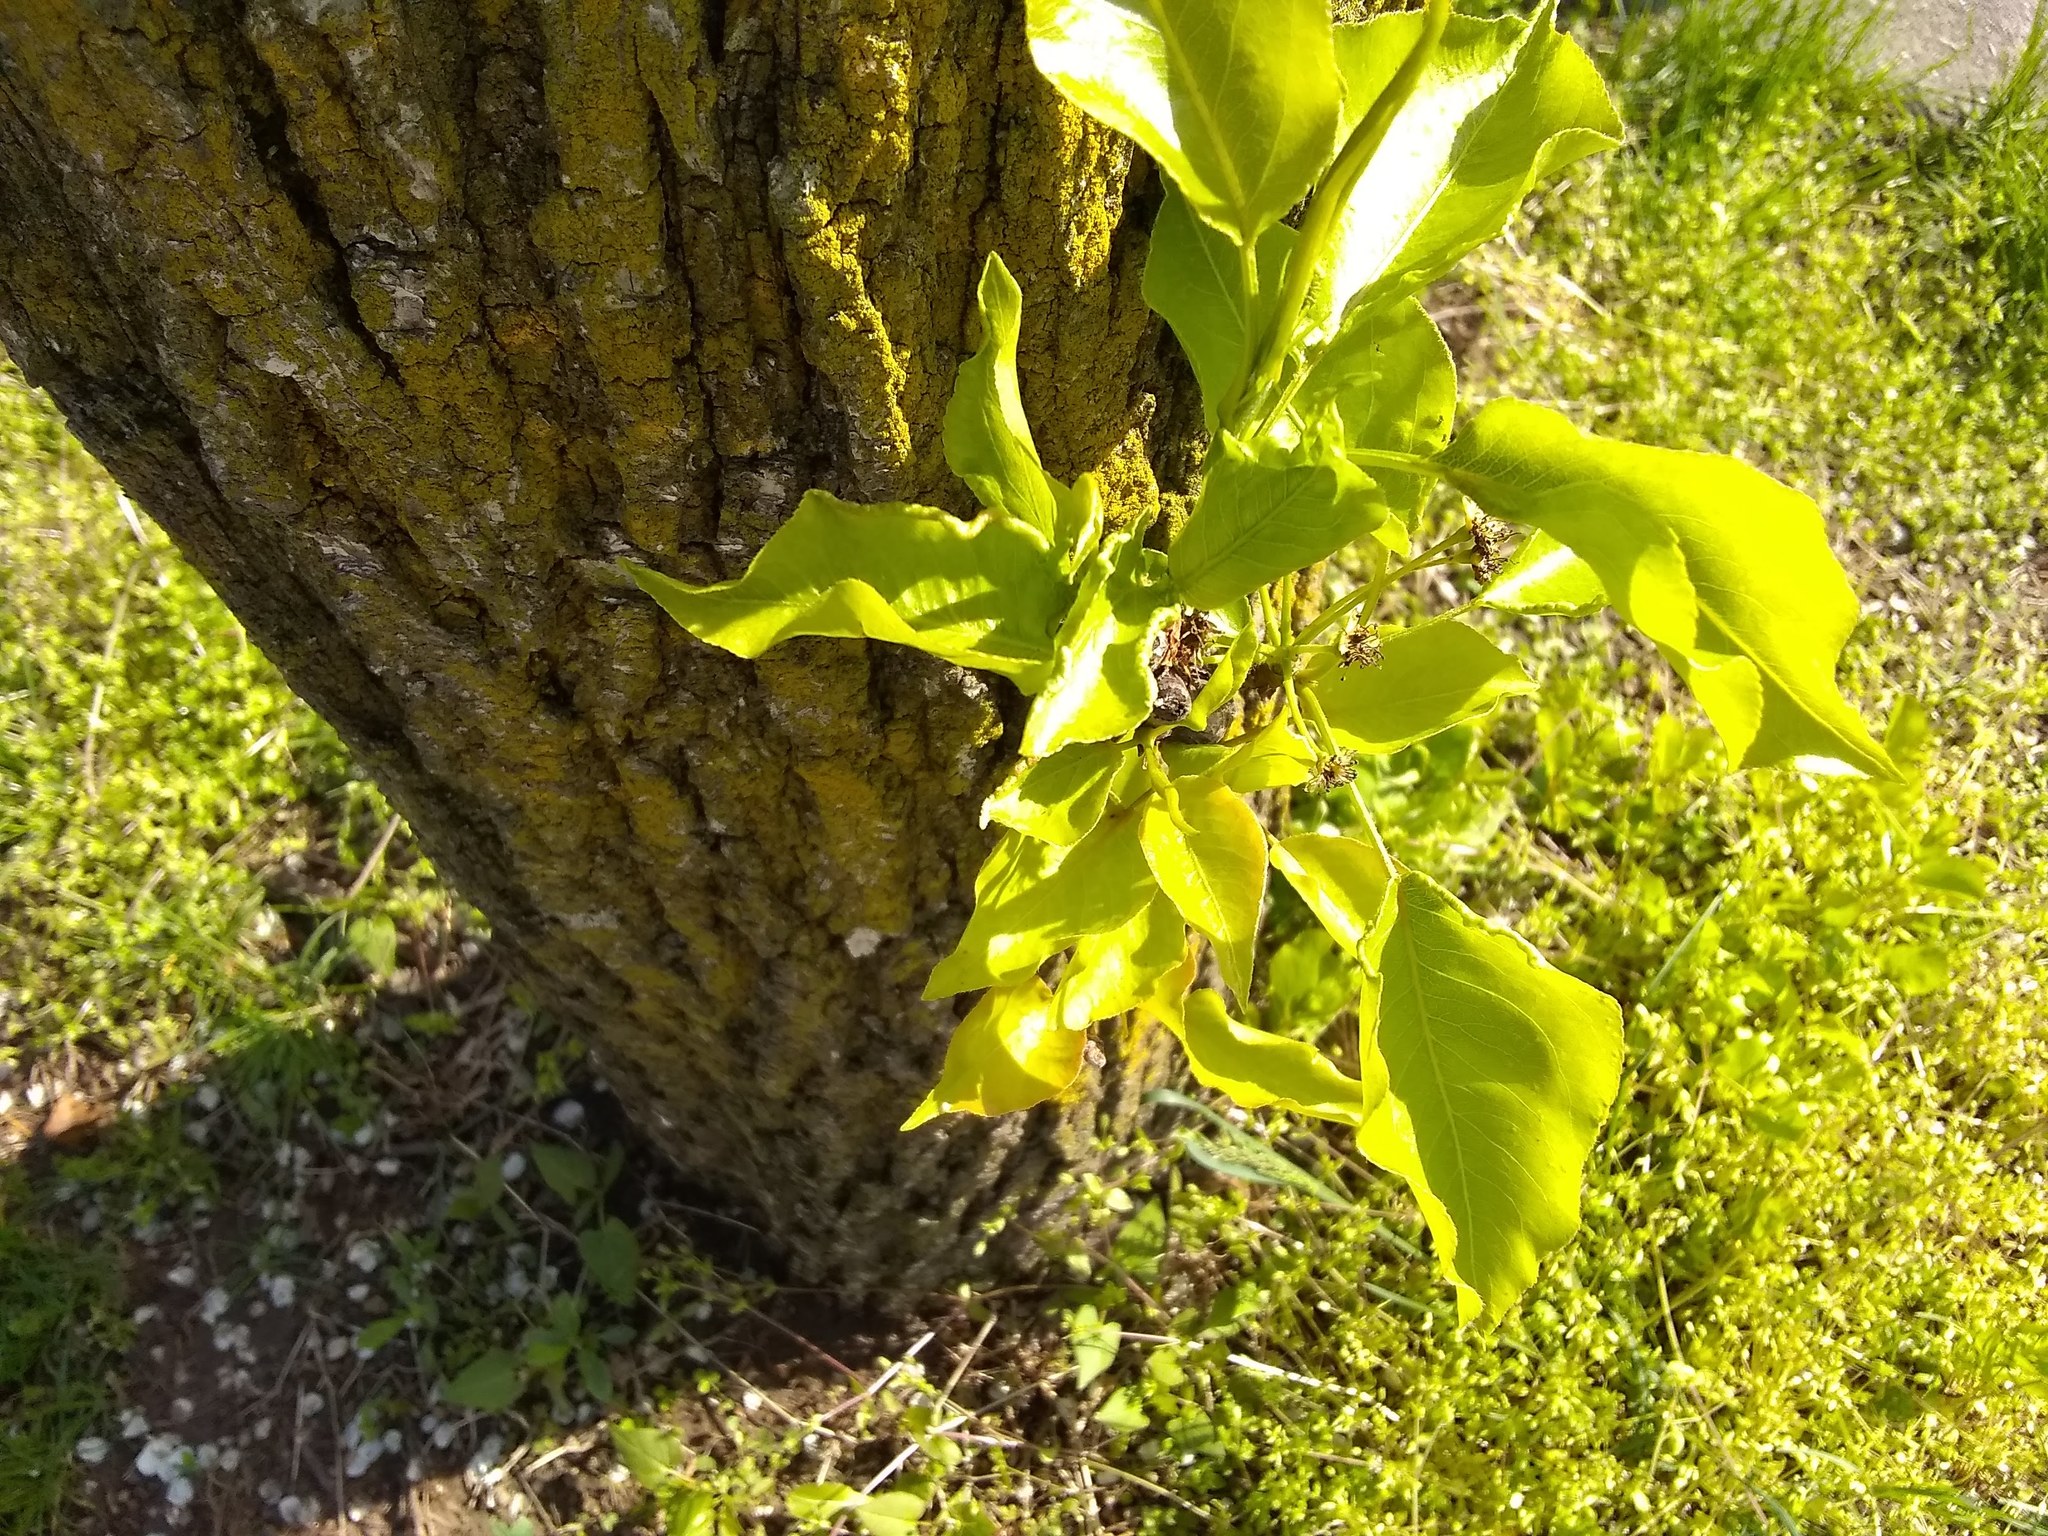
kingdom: Plantae
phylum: Tracheophyta
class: Magnoliopsida
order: Rosales
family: Rosaceae
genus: Pyrus
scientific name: Pyrus calleryana
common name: Callery pear
